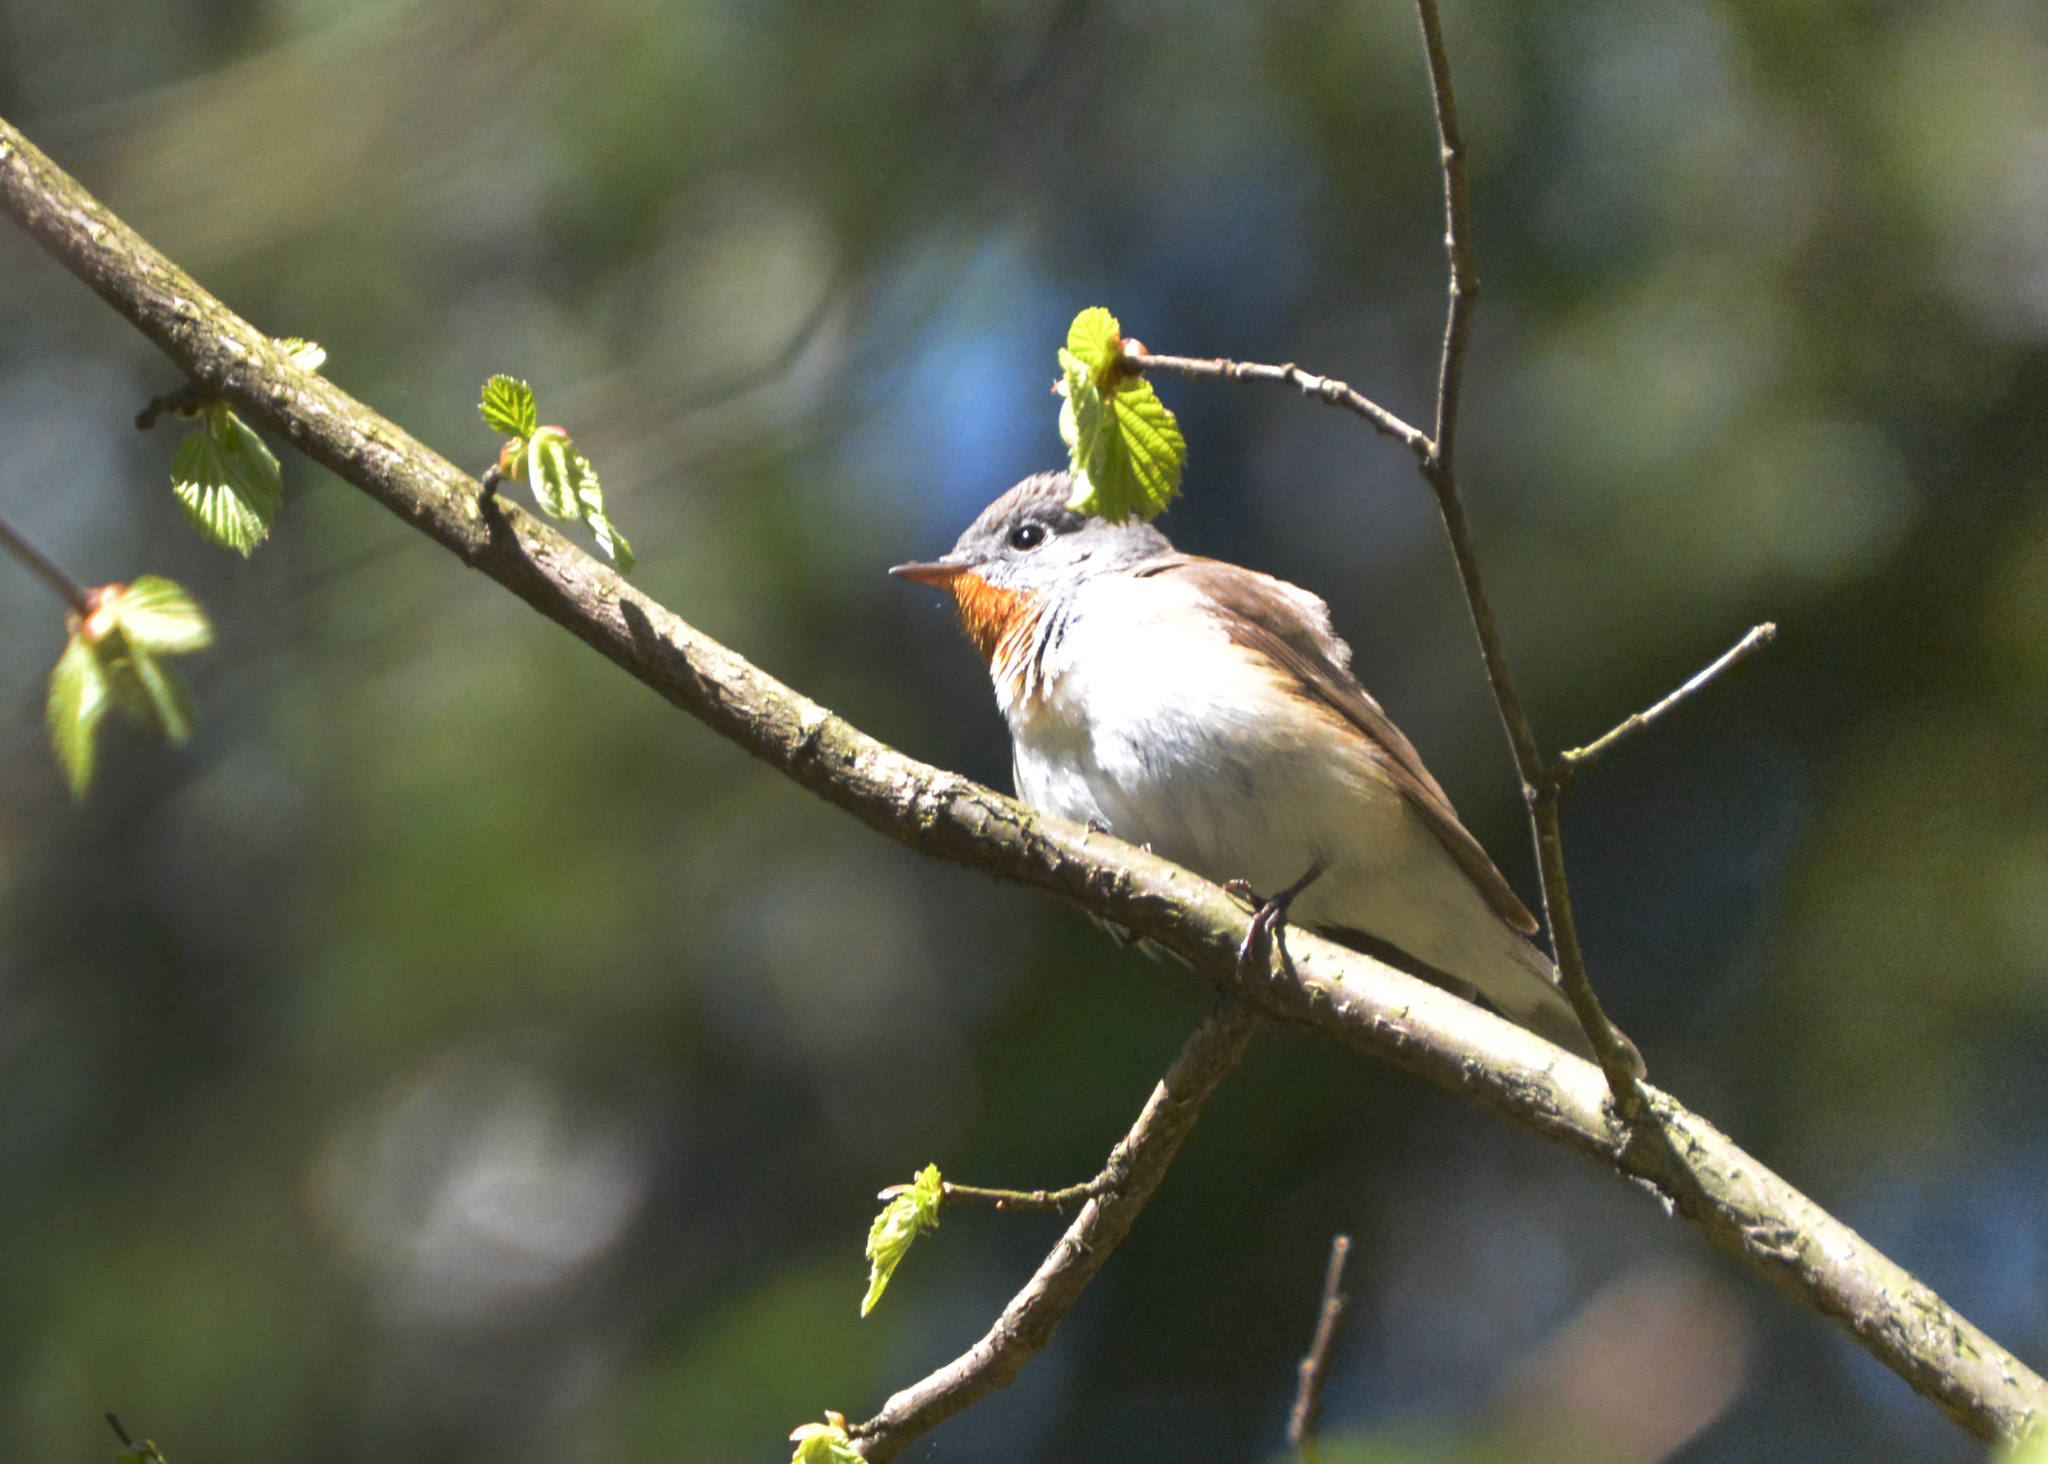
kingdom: Animalia
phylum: Chordata
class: Aves
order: Passeriformes
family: Muscicapidae
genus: Ficedula
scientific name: Ficedula parva
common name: Red-breasted flycatcher
